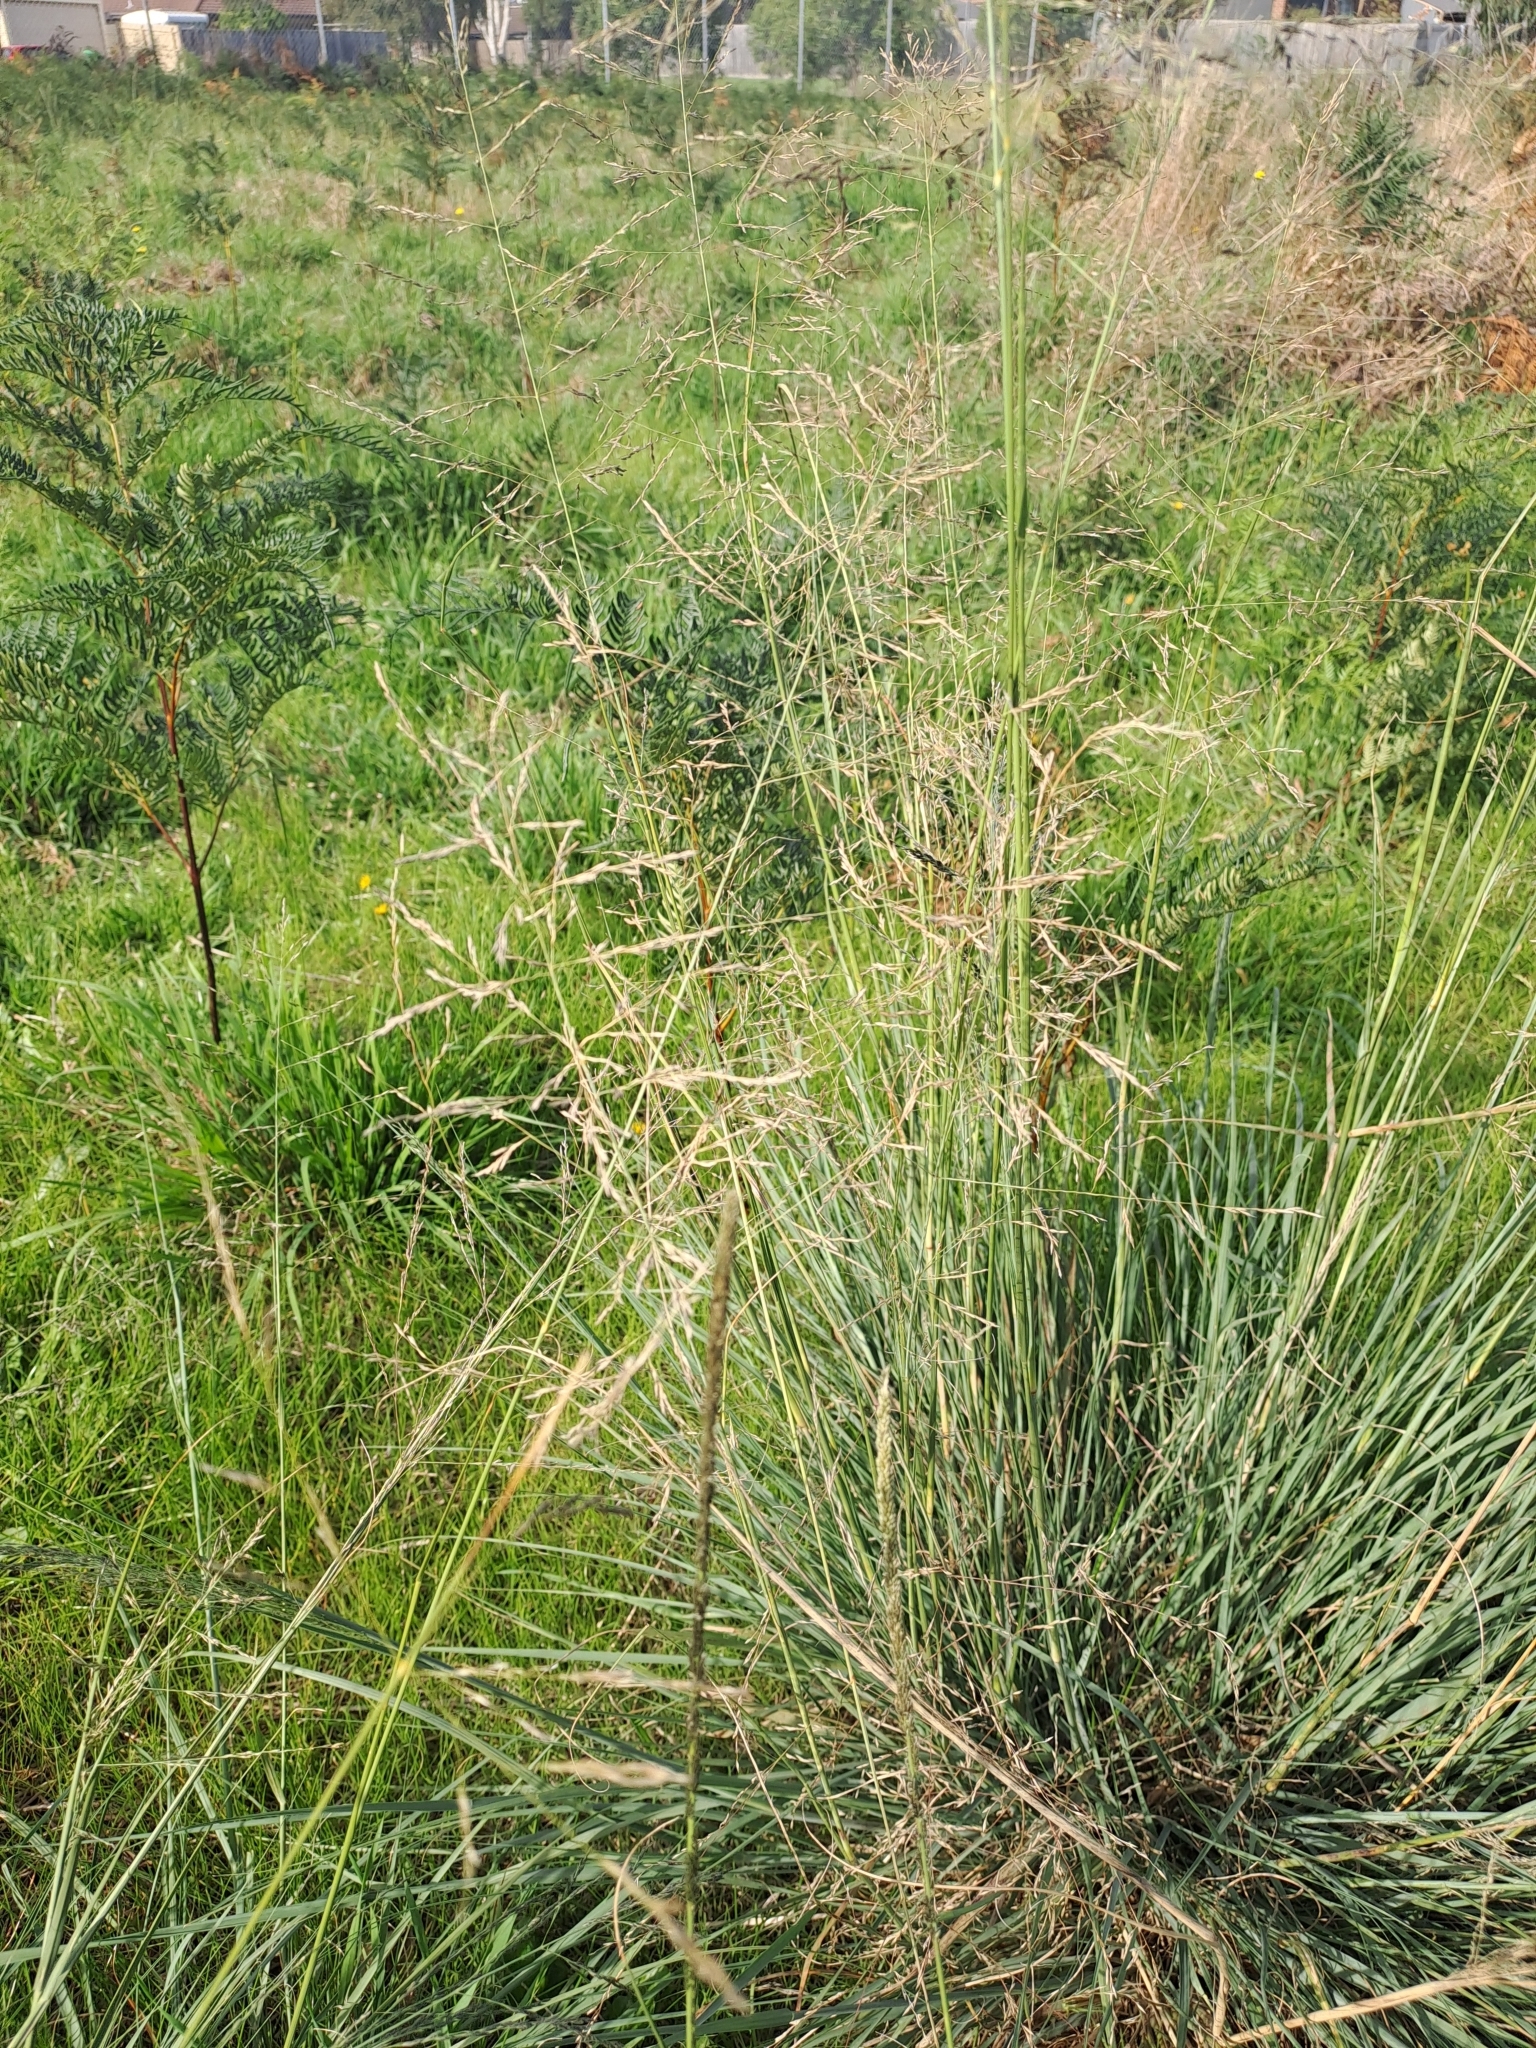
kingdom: Plantae
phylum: Tracheophyta
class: Liliopsida
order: Poales
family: Poaceae
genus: Eragrostis
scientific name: Eragrostis curvula
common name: African love-grass
